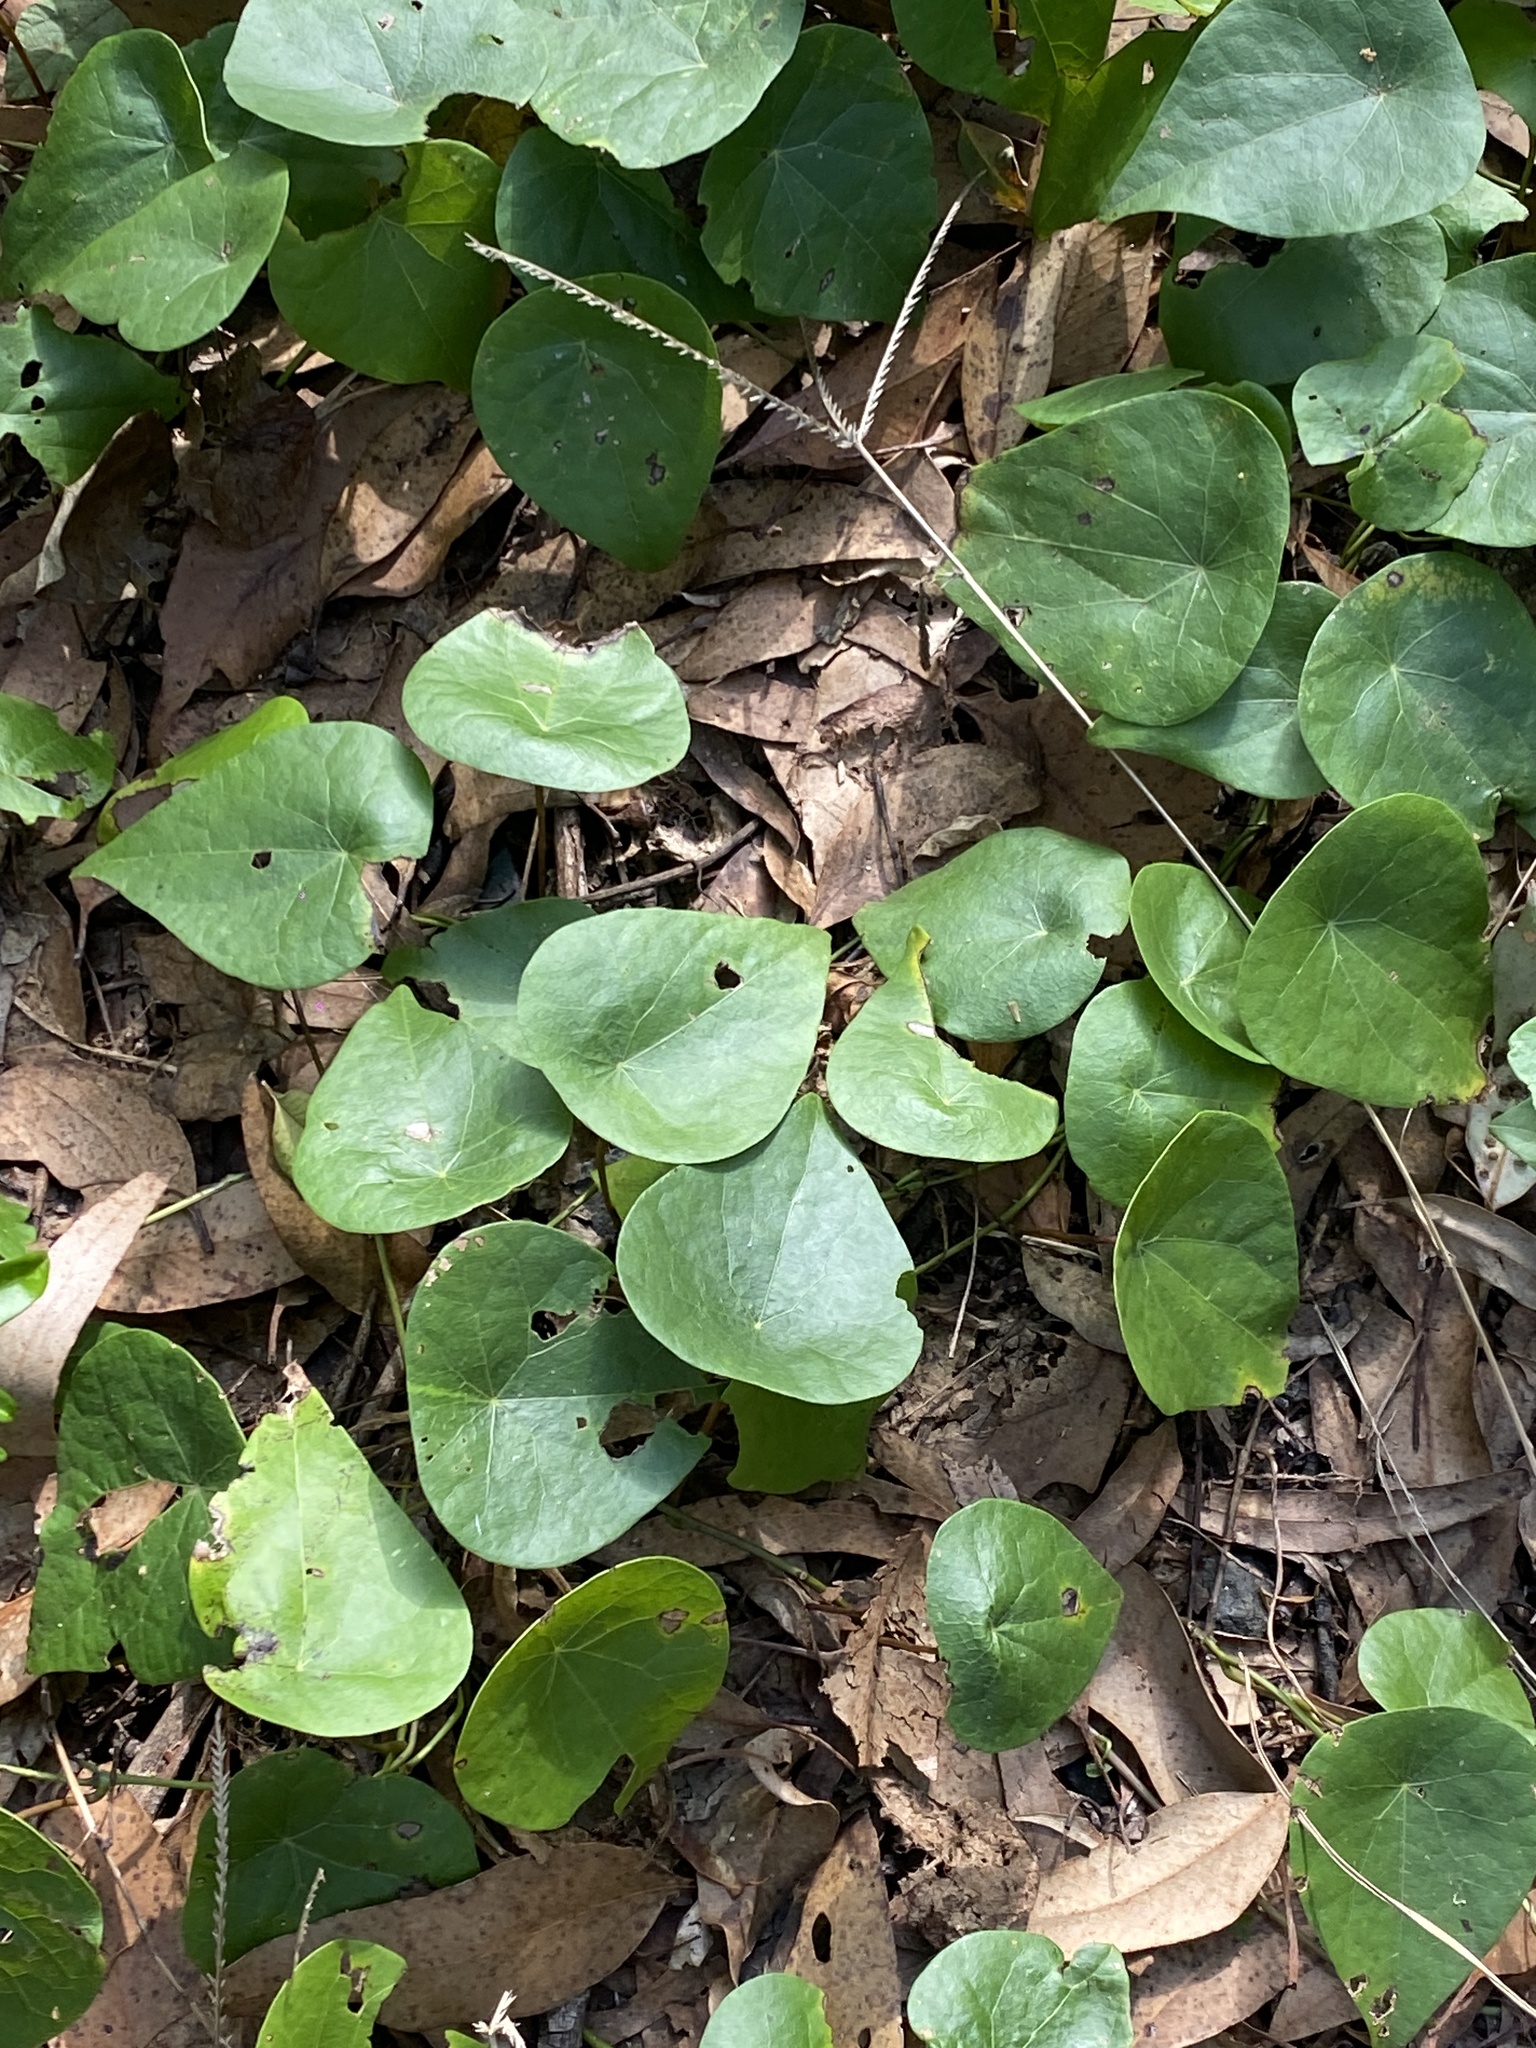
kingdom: Plantae
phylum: Tracheophyta
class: Magnoliopsida
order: Ranunculales
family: Menispermaceae
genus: Stephania
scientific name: Stephania japonica
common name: Snake vine
